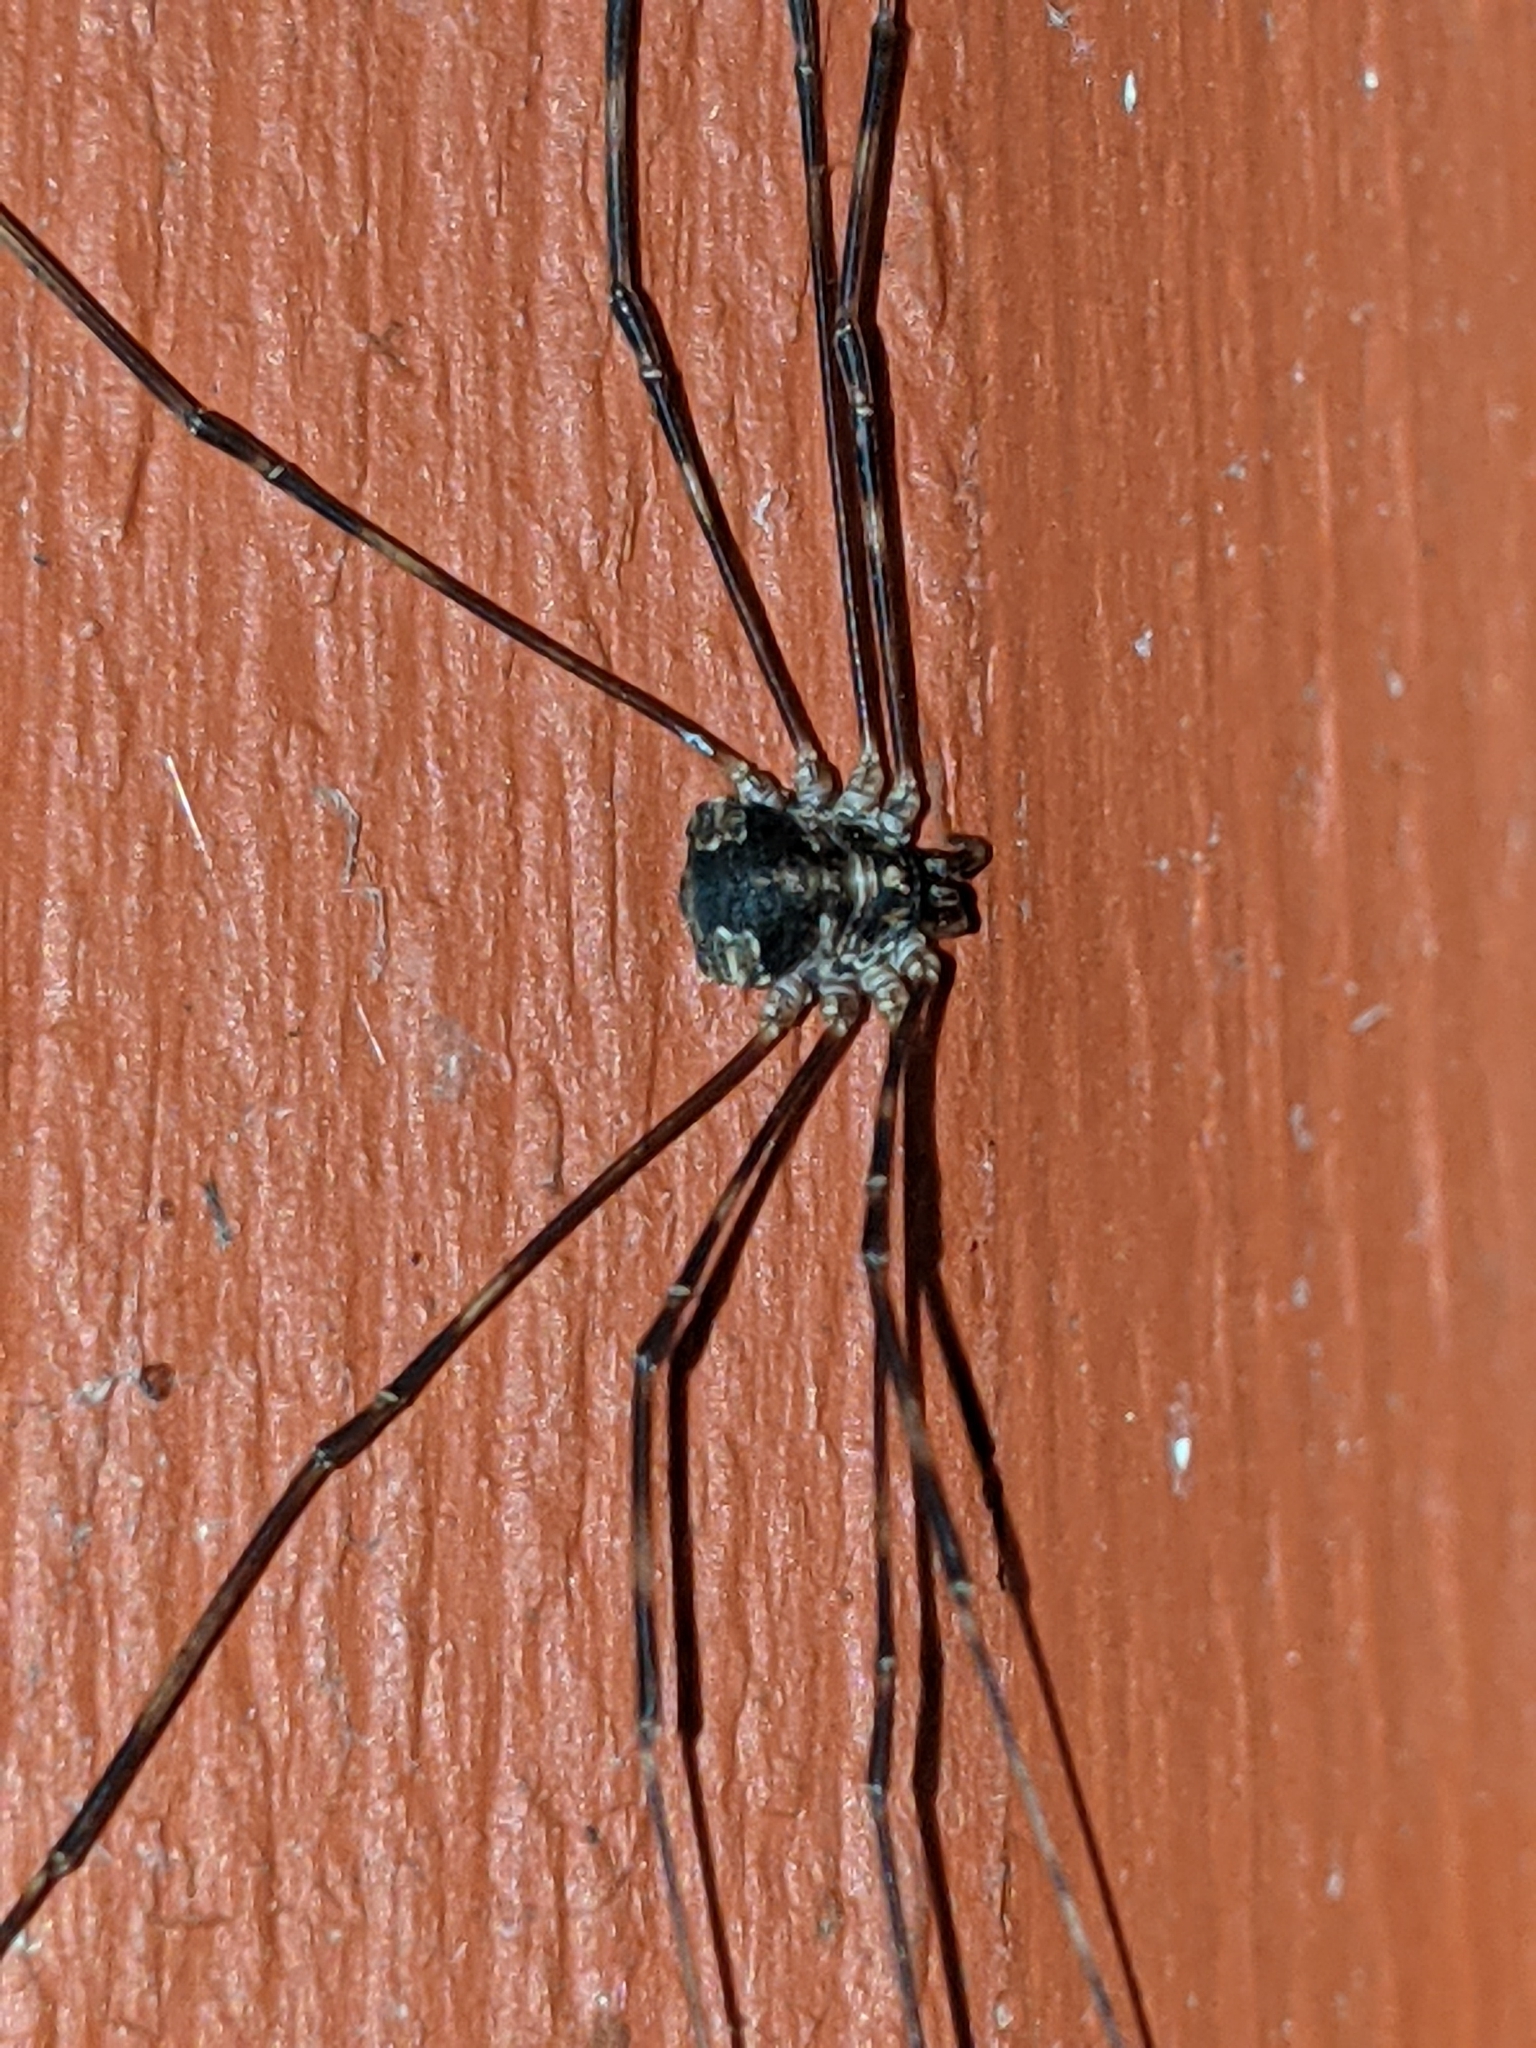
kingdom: Animalia
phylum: Arthropoda
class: Arachnida
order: Opiliones
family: Phalangiidae
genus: Leptobunus
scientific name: Leptobunus parvulus
